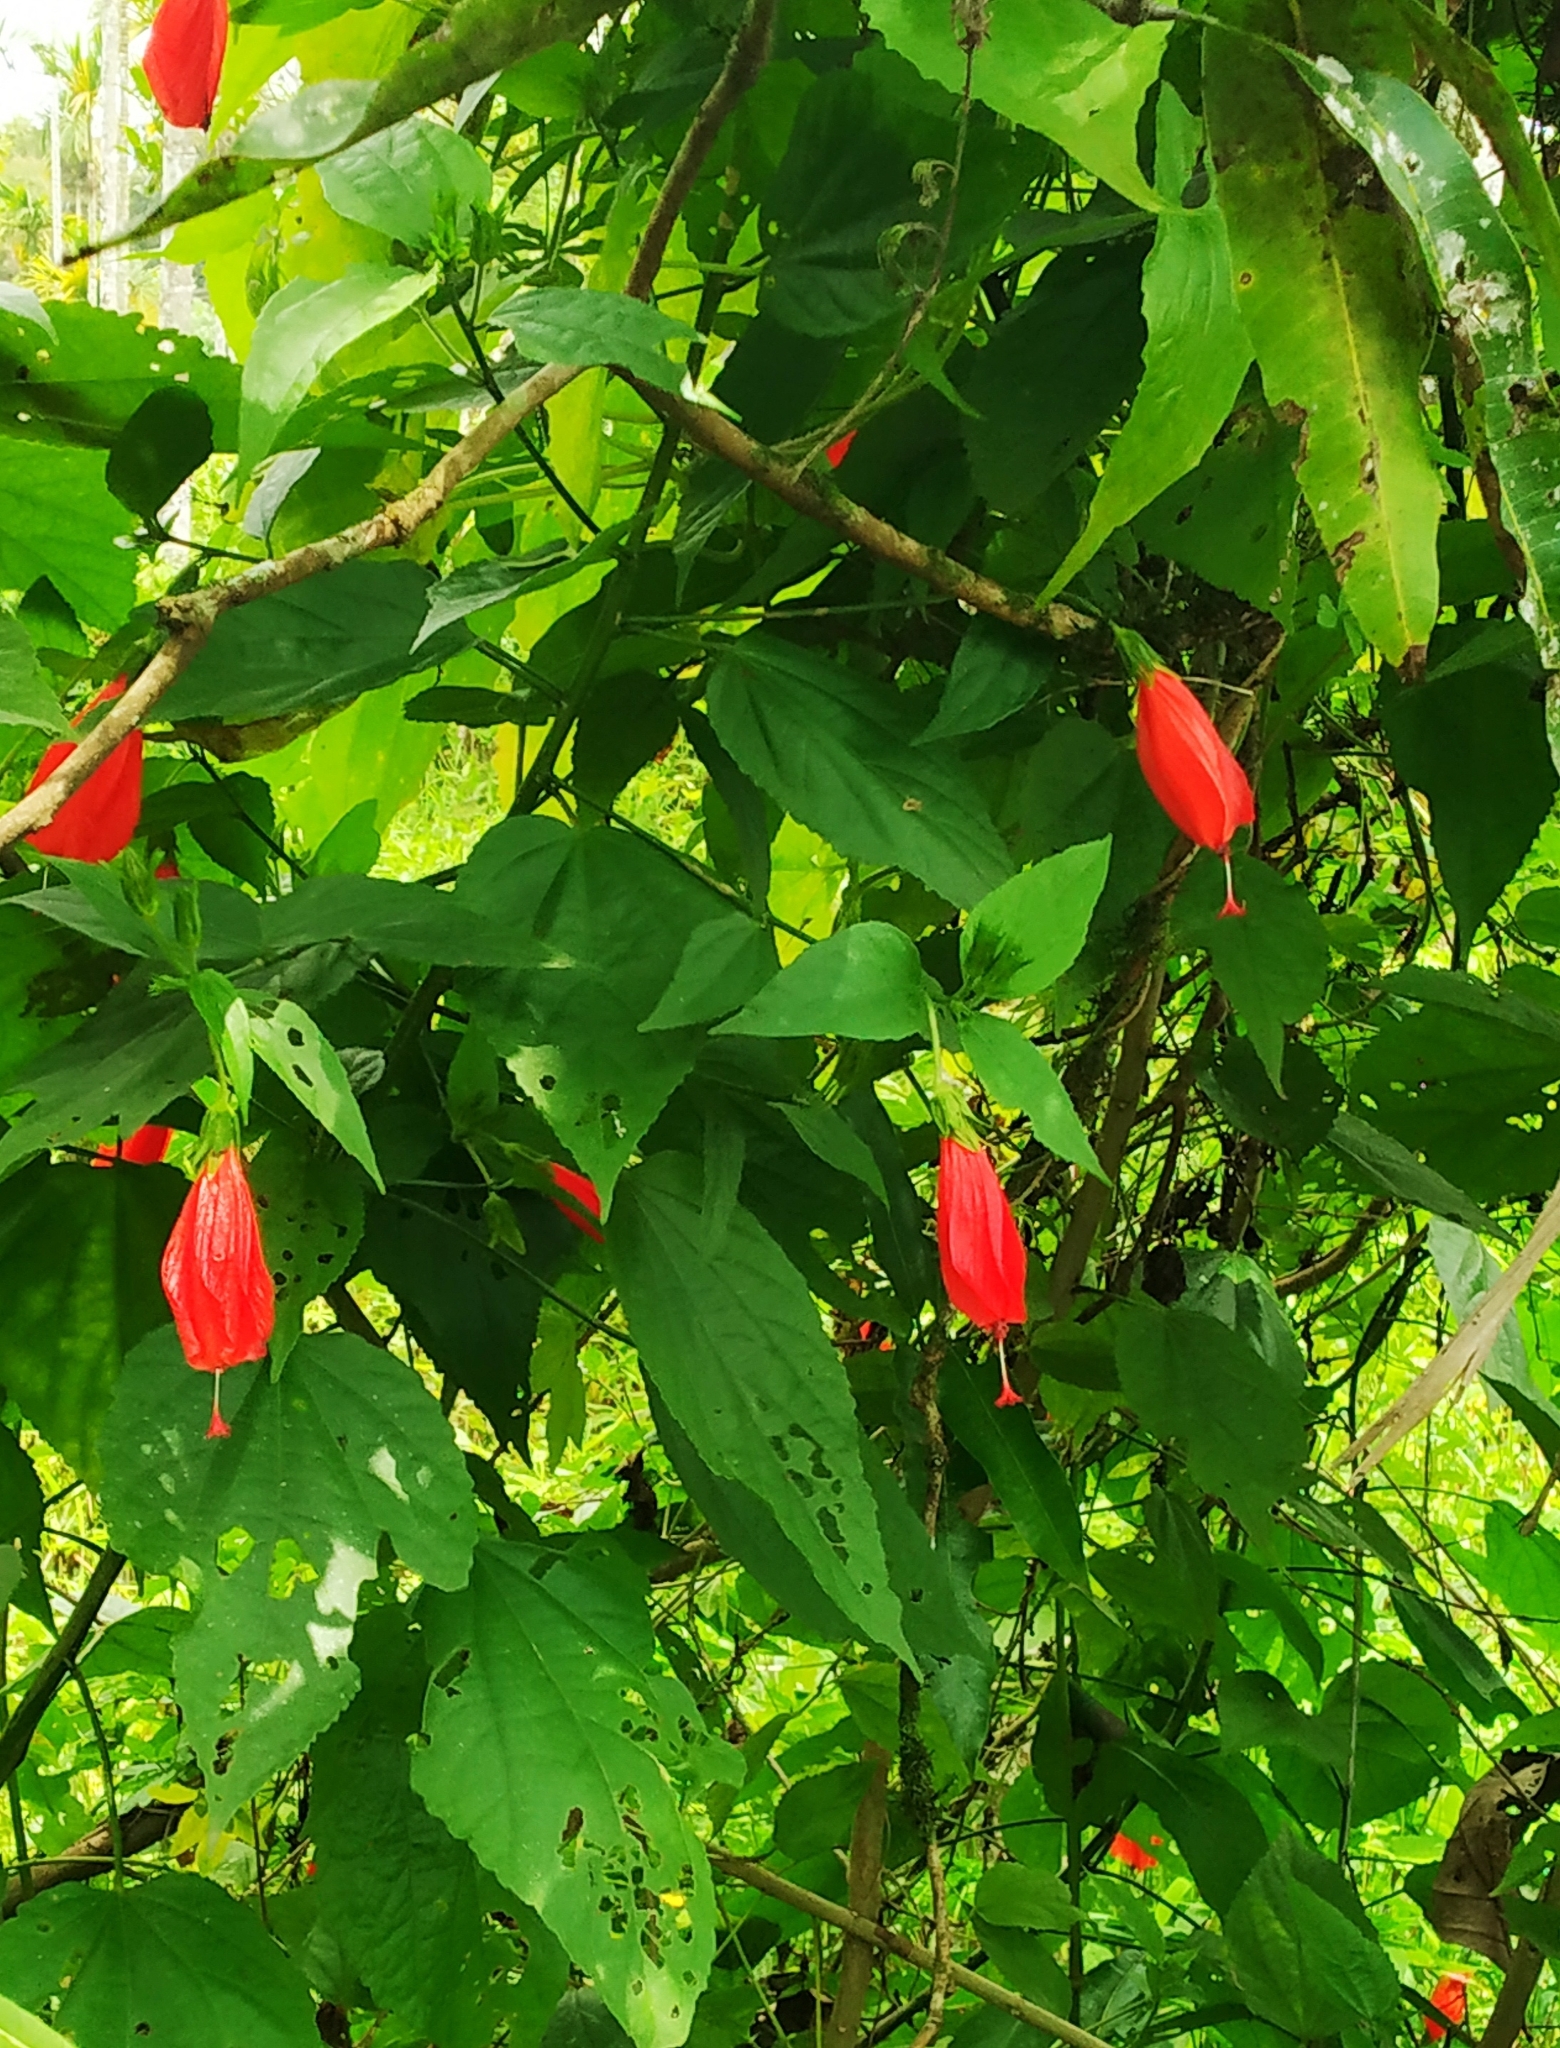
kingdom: Plantae
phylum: Tracheophyta
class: Magnoliopsida
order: Malvales
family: Malvaceae
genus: Malvaviscus
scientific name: Malvaviscus penduliflorus
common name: Mazapan
